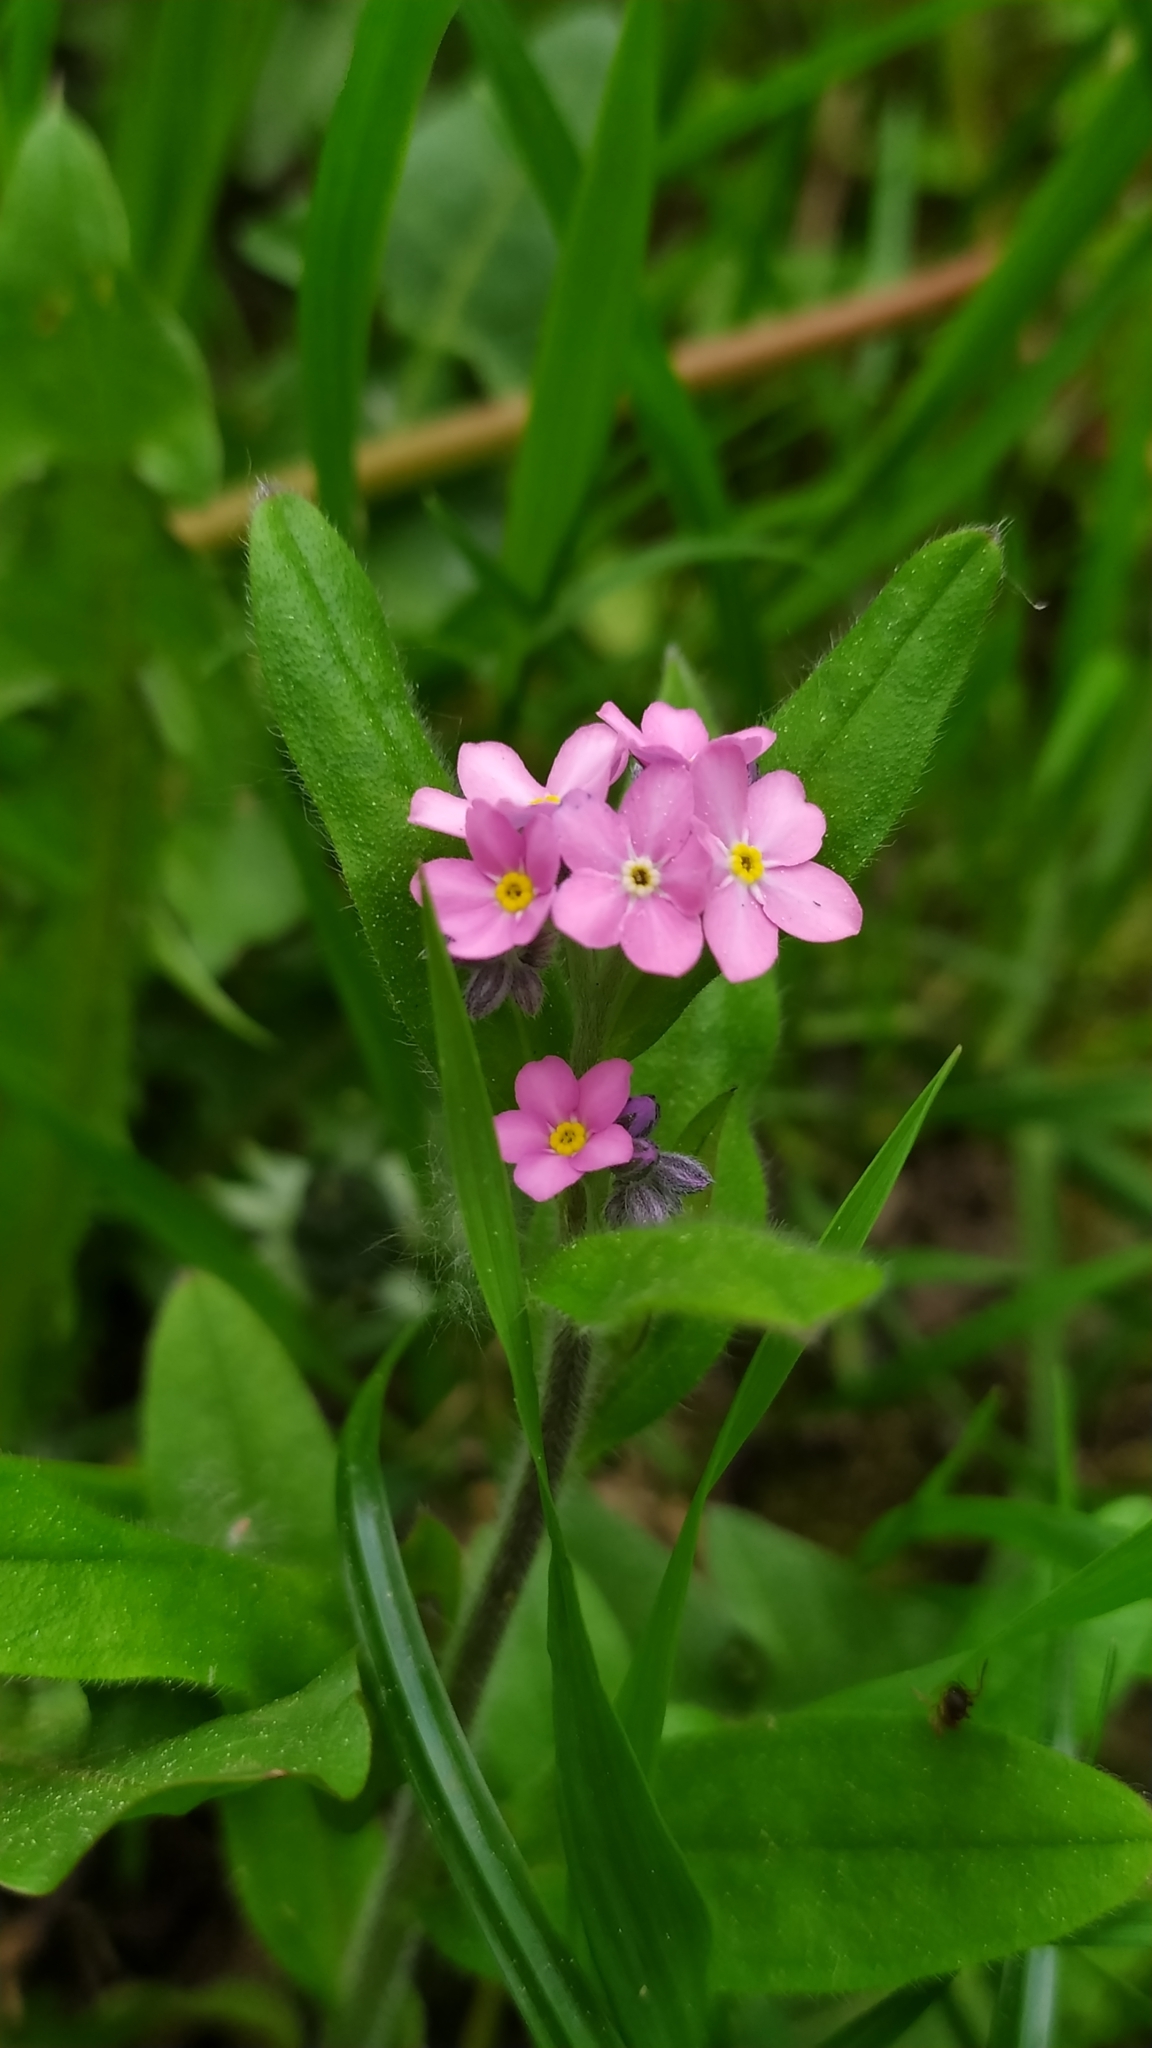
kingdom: Plantae
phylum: Tracheophyta
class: Magnoliopsida
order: Boraginales
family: Boraginaceae
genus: Myosotis
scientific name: Myosotis sylvatica
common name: Wood forget-me-not
